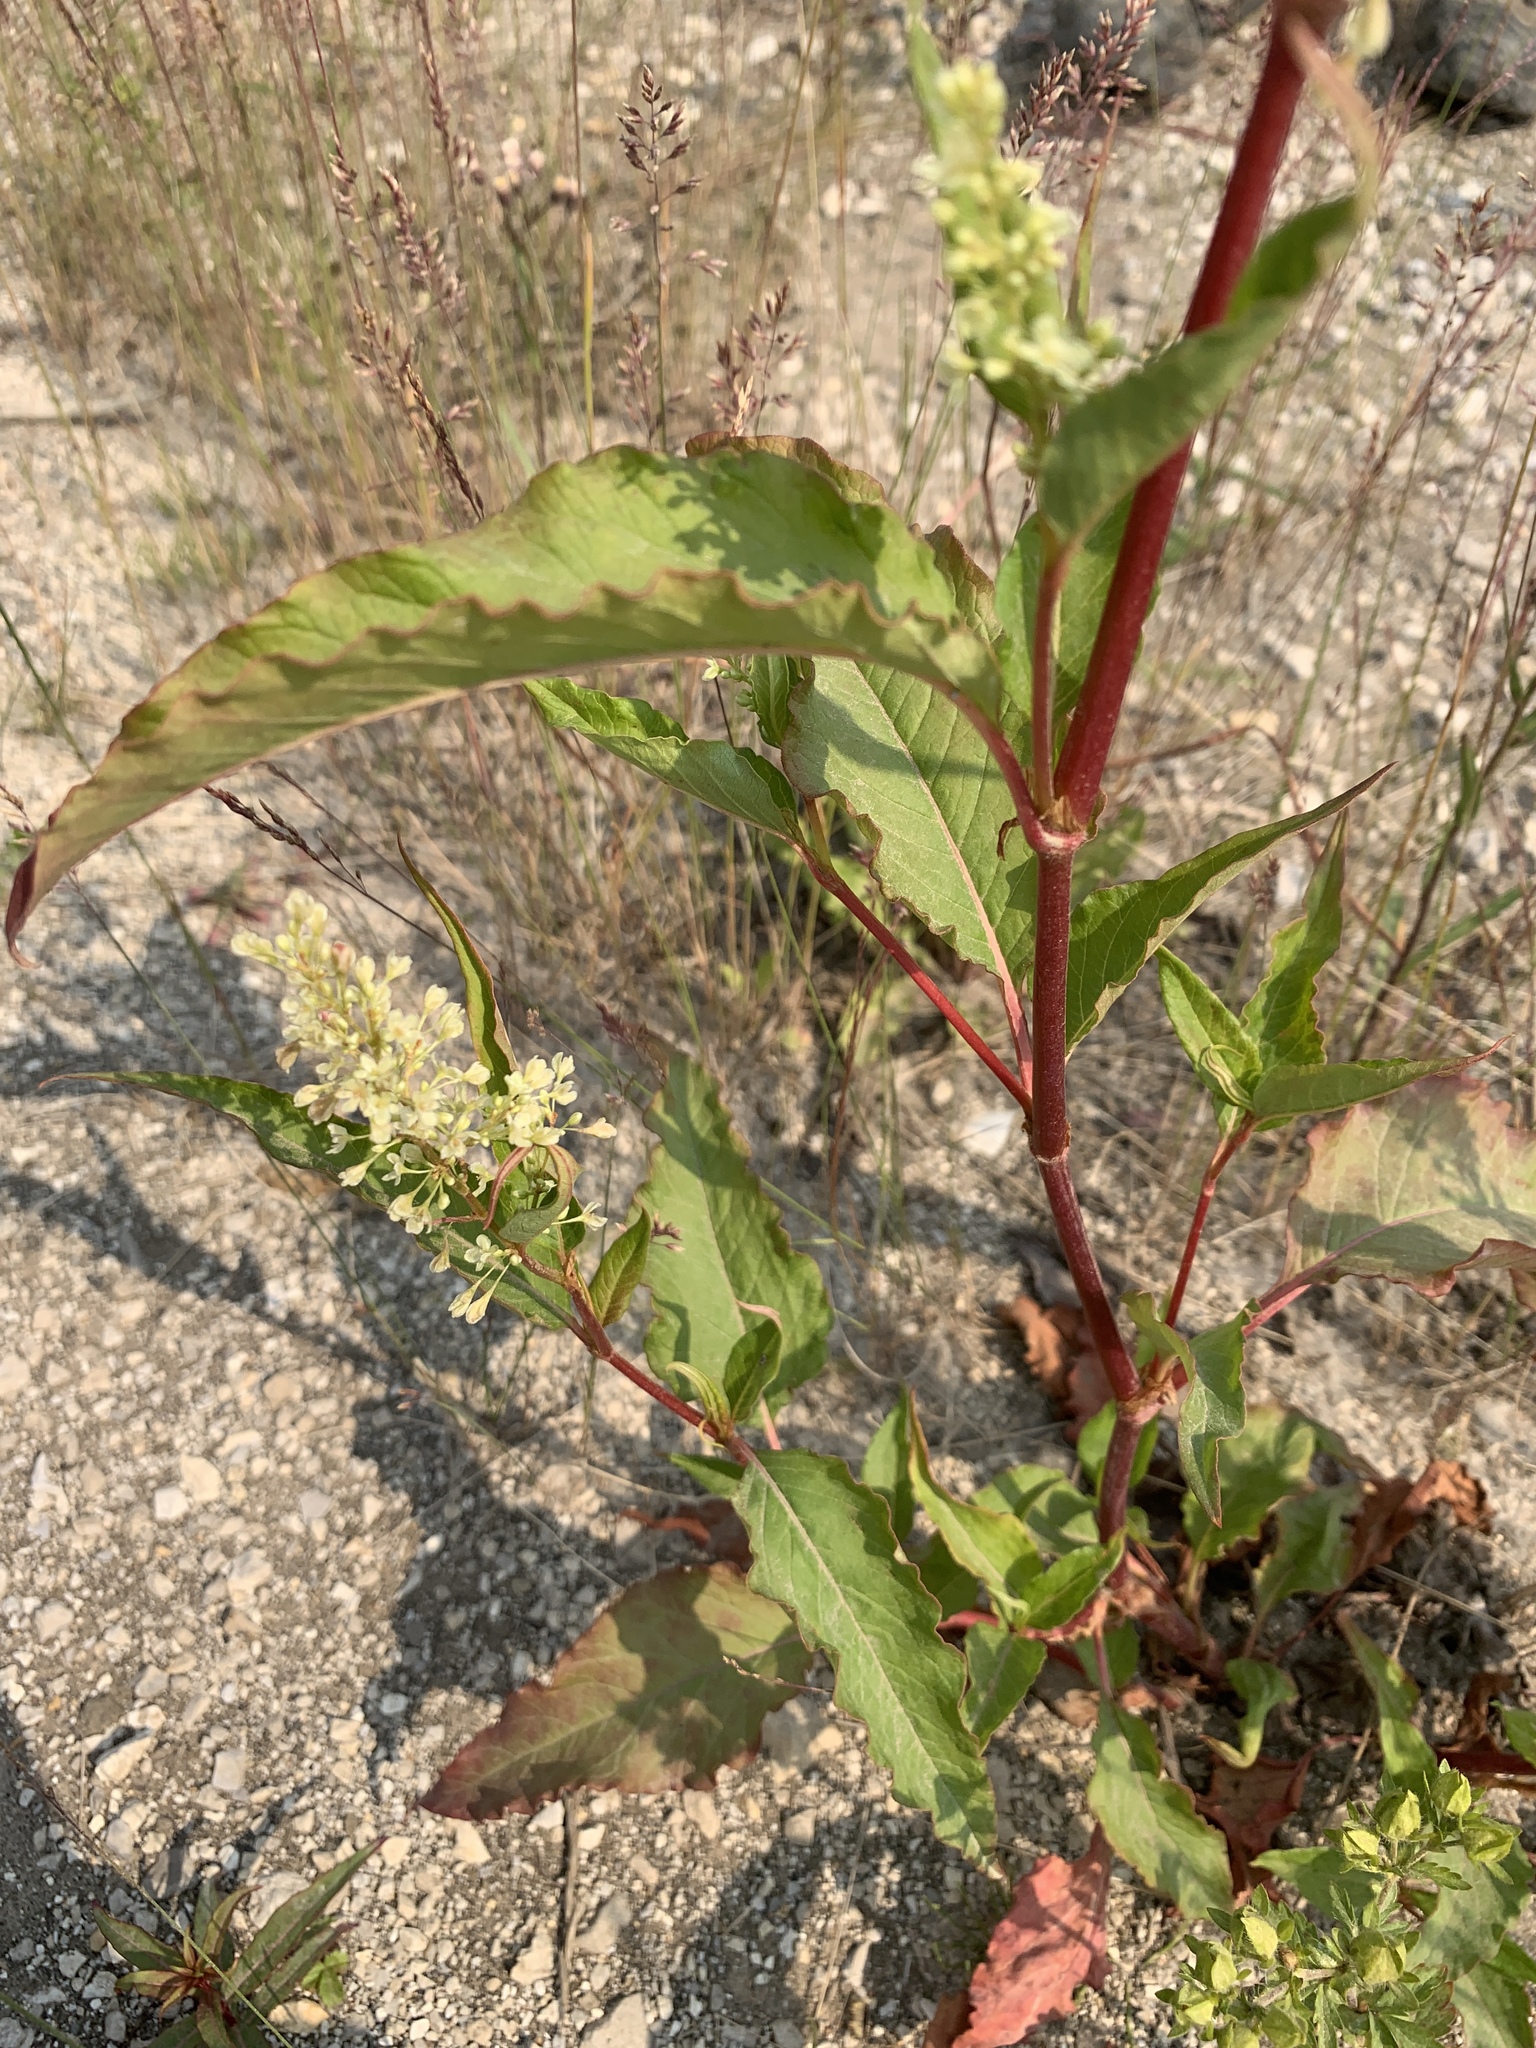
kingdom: Plantae
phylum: Tracheophyta
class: Magnoliopsida
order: Caryophyllales
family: Polygonaceae
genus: Koenigia
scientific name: Koenigia lapathifolia
